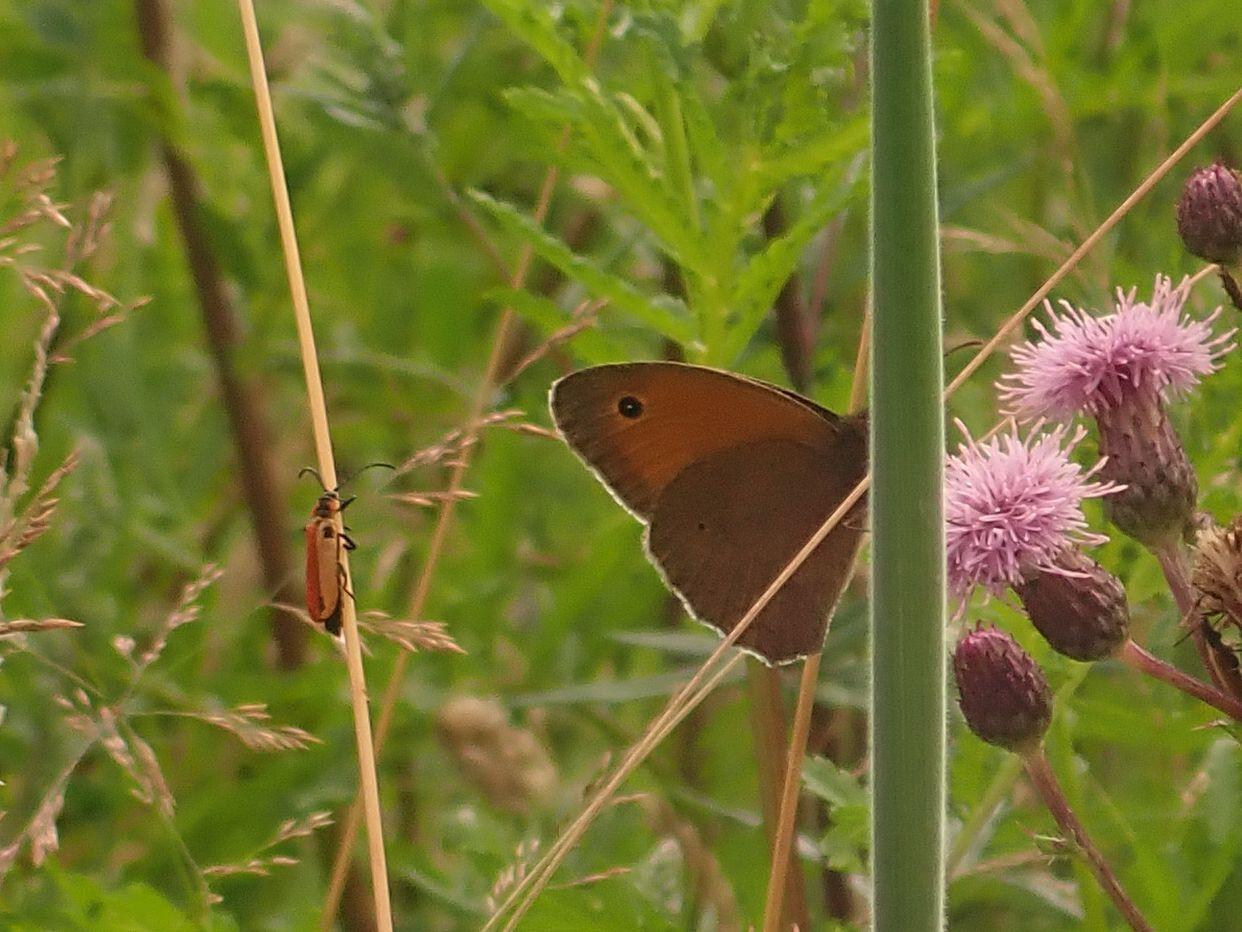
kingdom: Animalia
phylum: Arthropoda
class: Insecta
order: Lepidoptera
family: Nymphalidae
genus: Maniola
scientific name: Maniola jurtina
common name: Meadow brown
